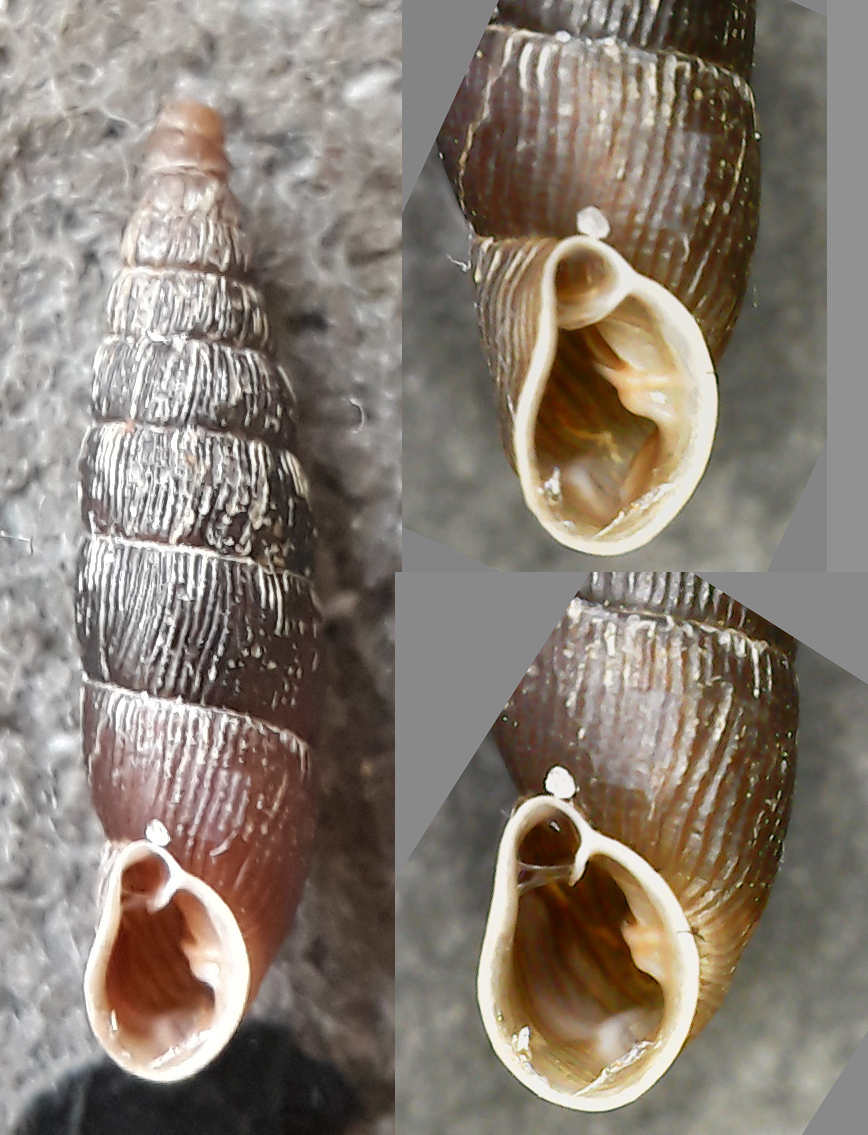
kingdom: Animalia
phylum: Mollusca
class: Gastropoda
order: Stylommatophora
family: Clausiliidae
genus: Clausilia
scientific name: Clausilia dubia
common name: Craven door snail
